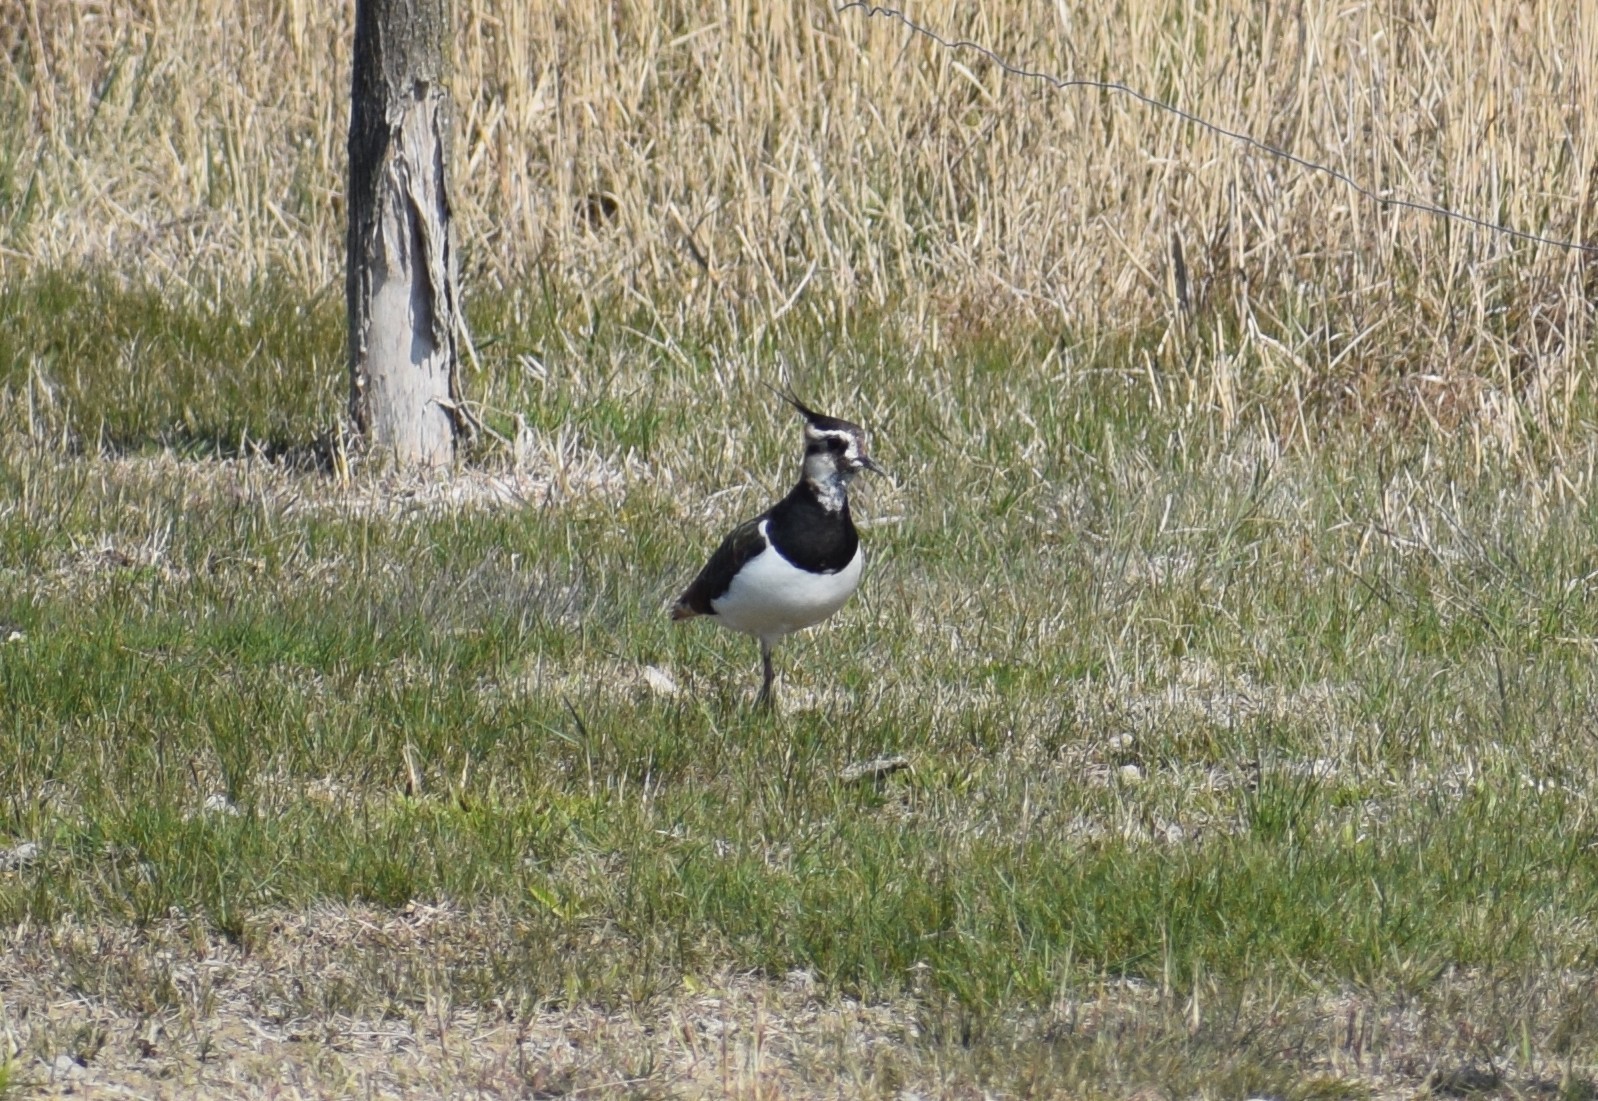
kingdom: Animalia
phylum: Chordata
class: Aves
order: Charadriiformes
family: Charadriidae
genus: Vanellus
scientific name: Vanellus vanellus
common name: Northern lapwing
